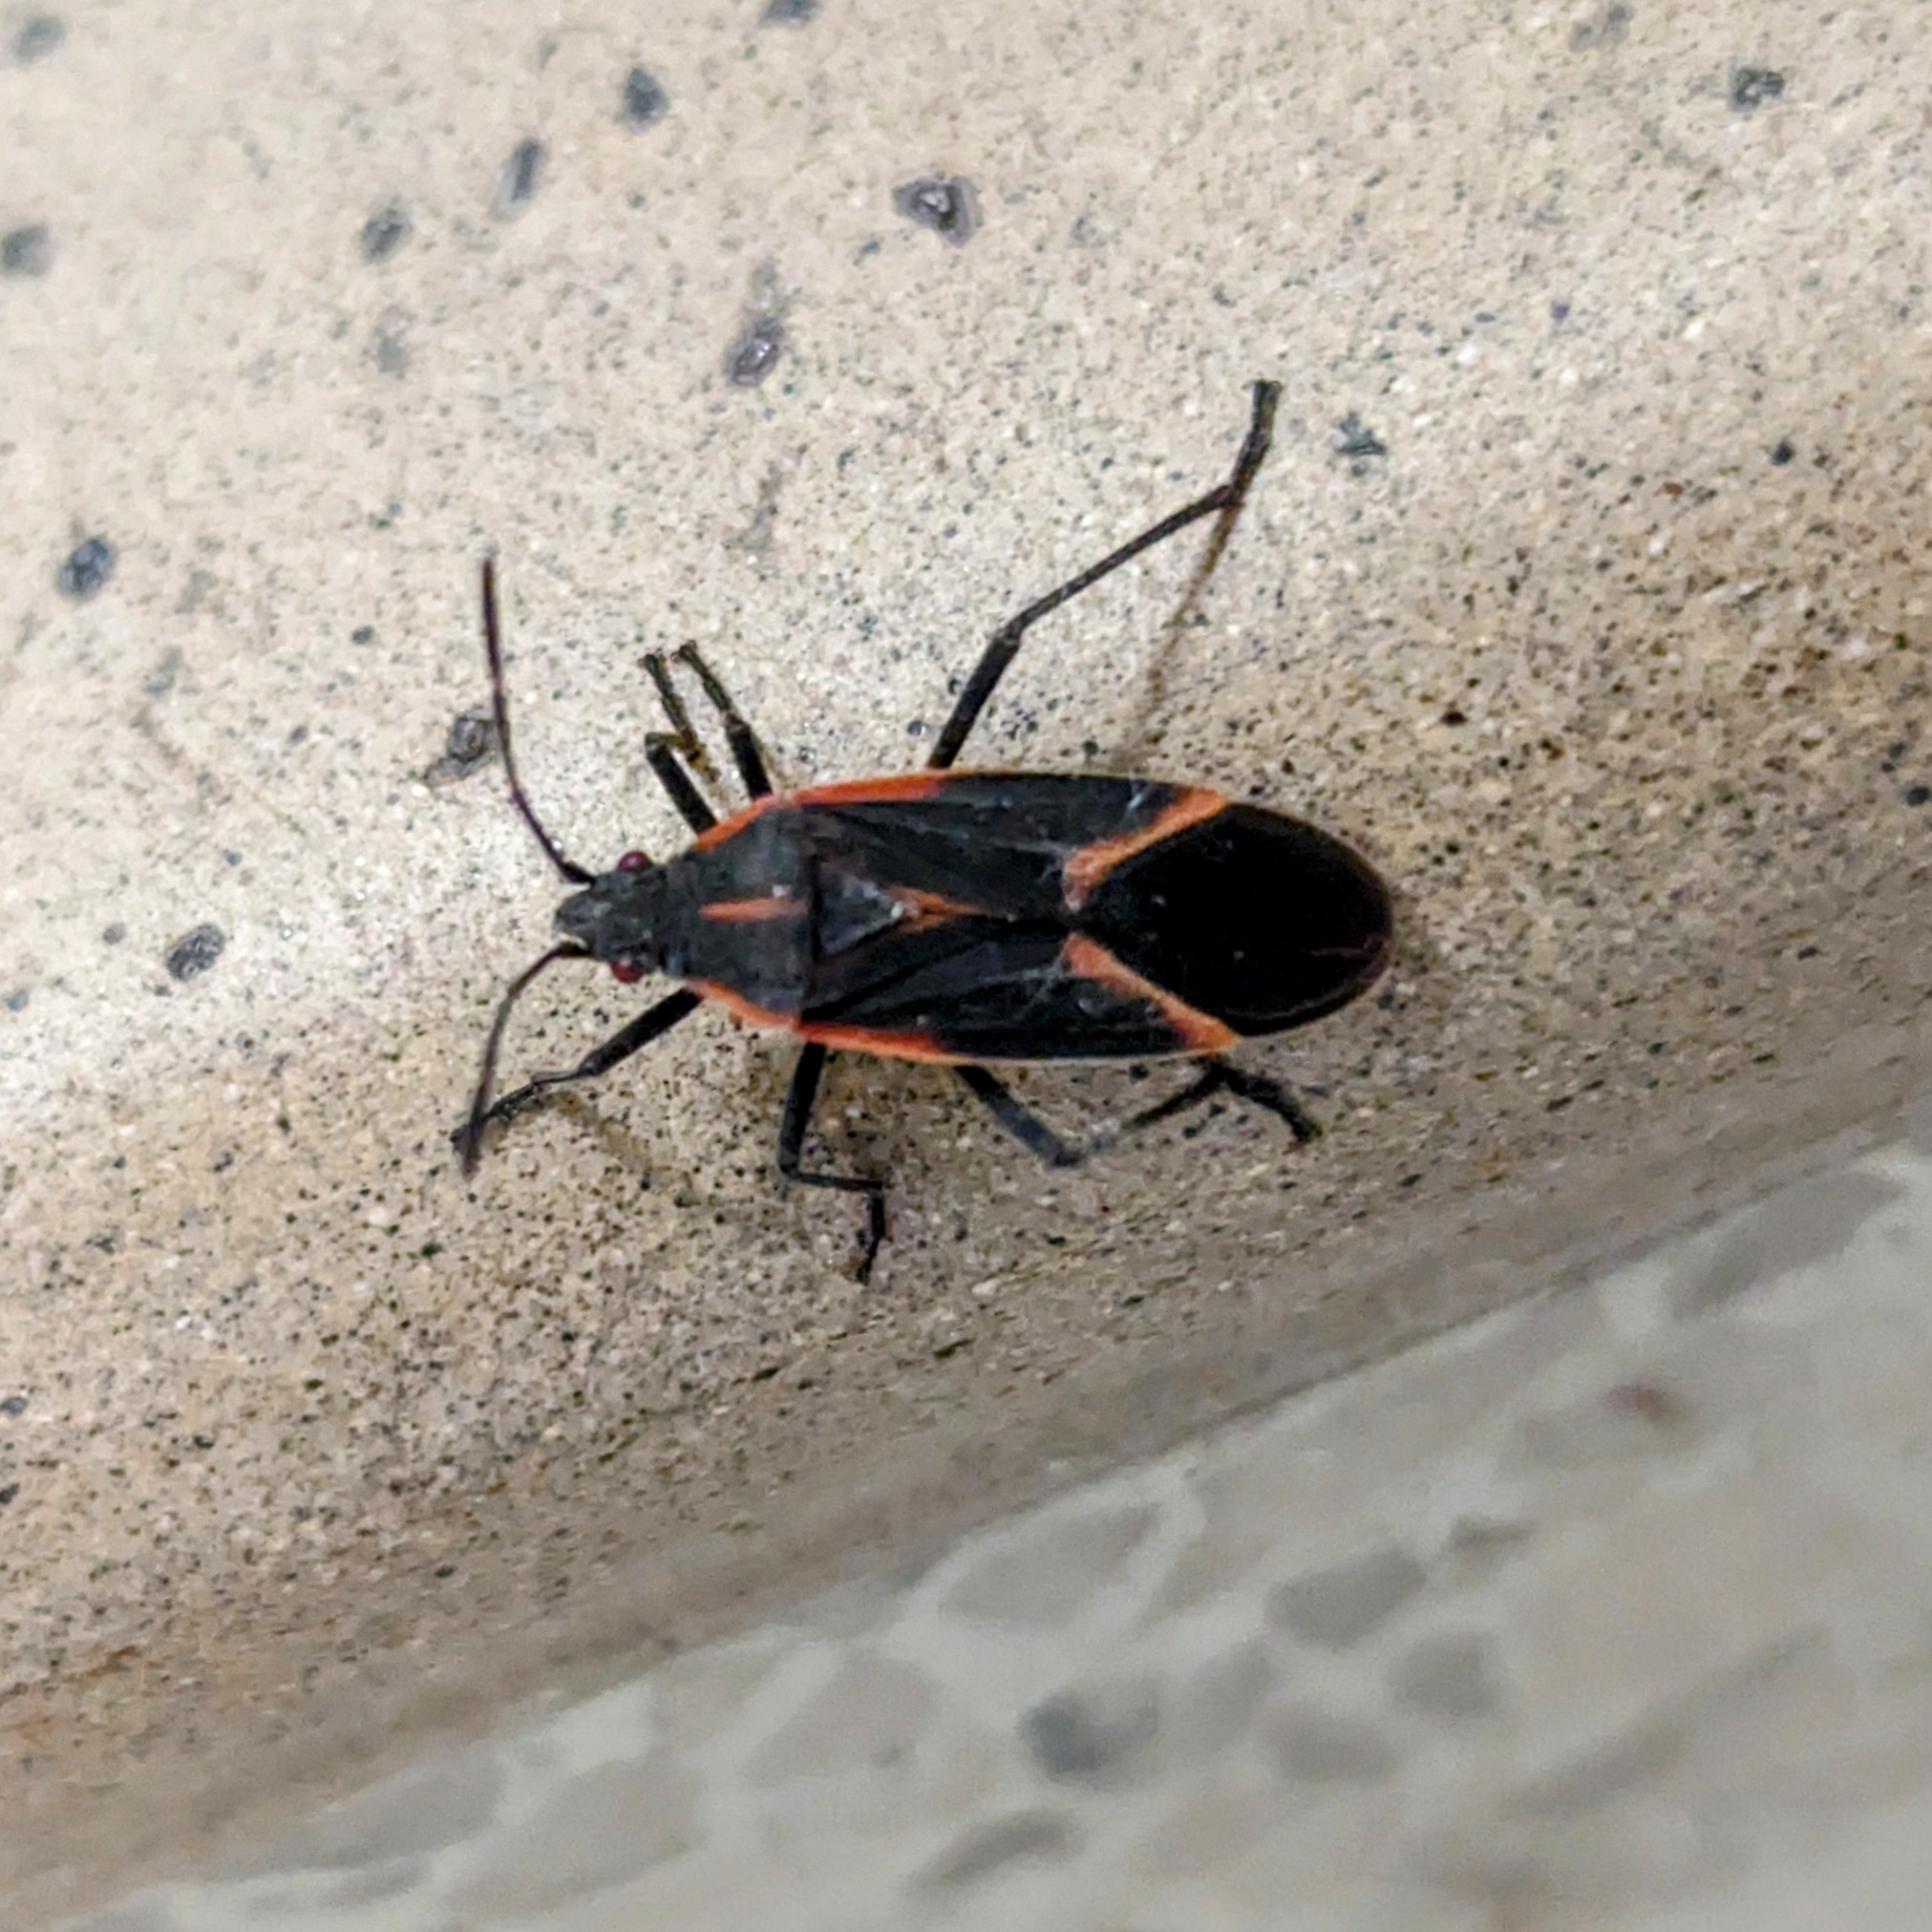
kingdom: Animalia
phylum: Arthropoda
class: Insecta
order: Hemiptera
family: Rhopalidae
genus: Boisea
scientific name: Boisea trivittata
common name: Boxelder bug
